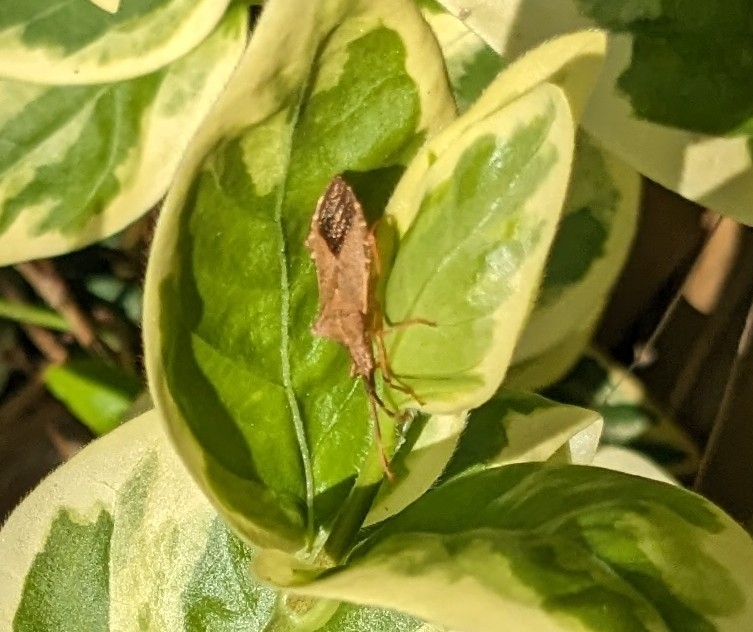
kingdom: Animalia
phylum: Arthropoda
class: Insecta
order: Hemiptera
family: Coreidae
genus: Gonocerus
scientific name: Gonocerus acuteangulatus
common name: Box bug
